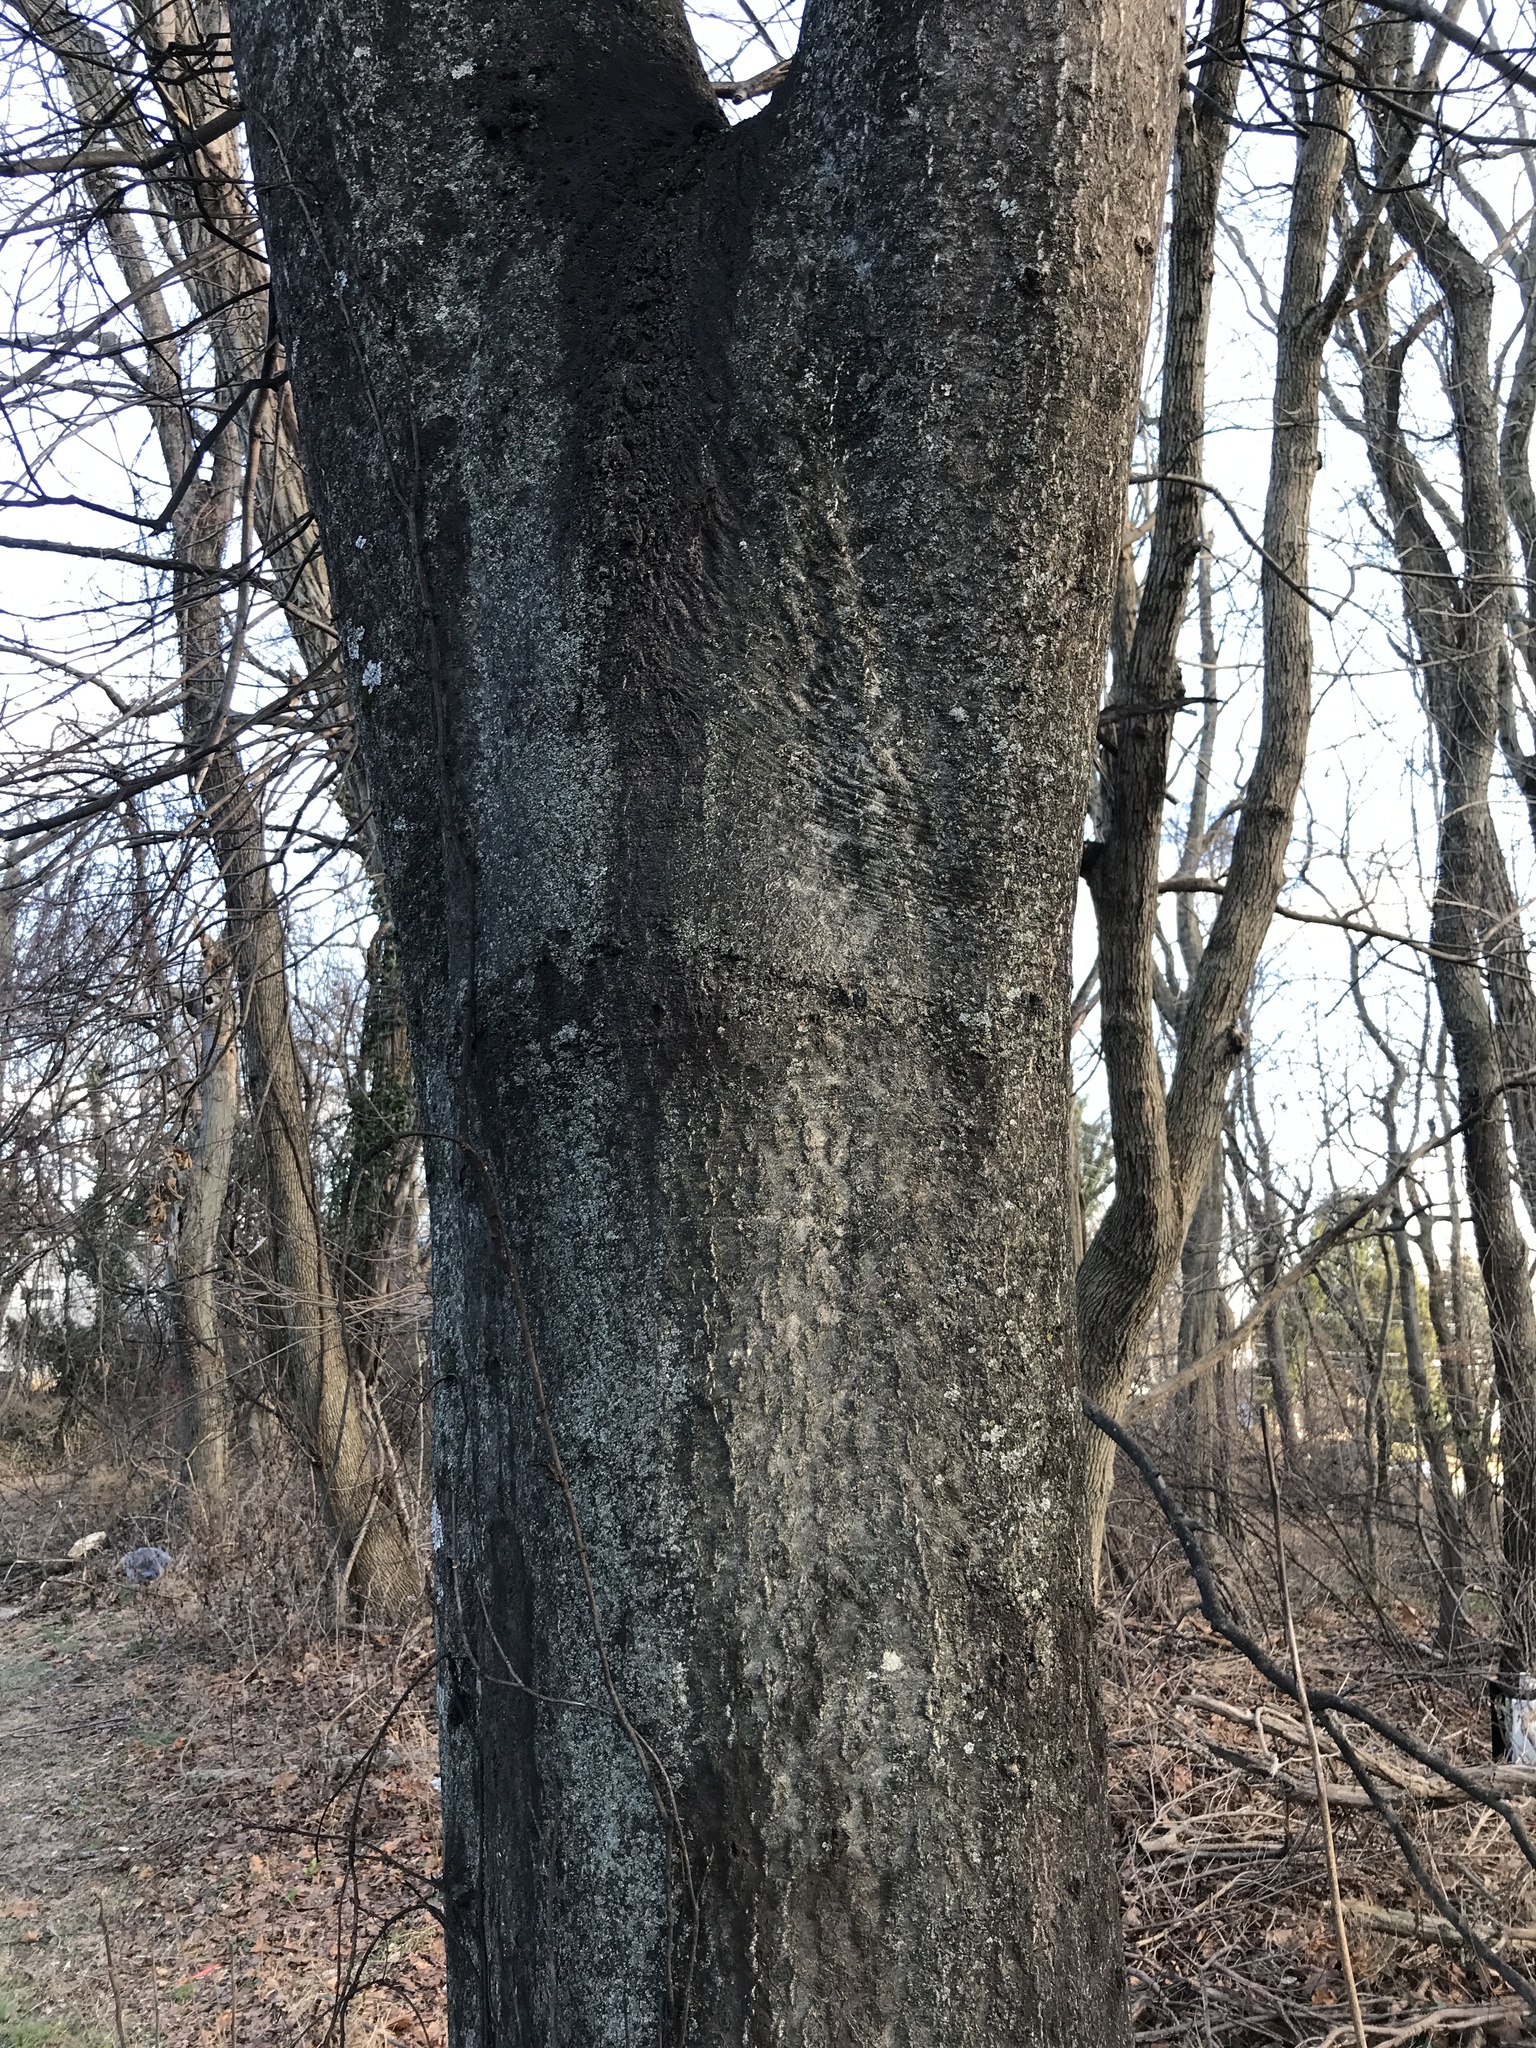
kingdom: Plantae
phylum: Tracheophyta
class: Magnoliopsida
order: Sapindales
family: Simaroubaceae
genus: Ailanthus
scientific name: Ailanthus altissima
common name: Tree-of-heaven
